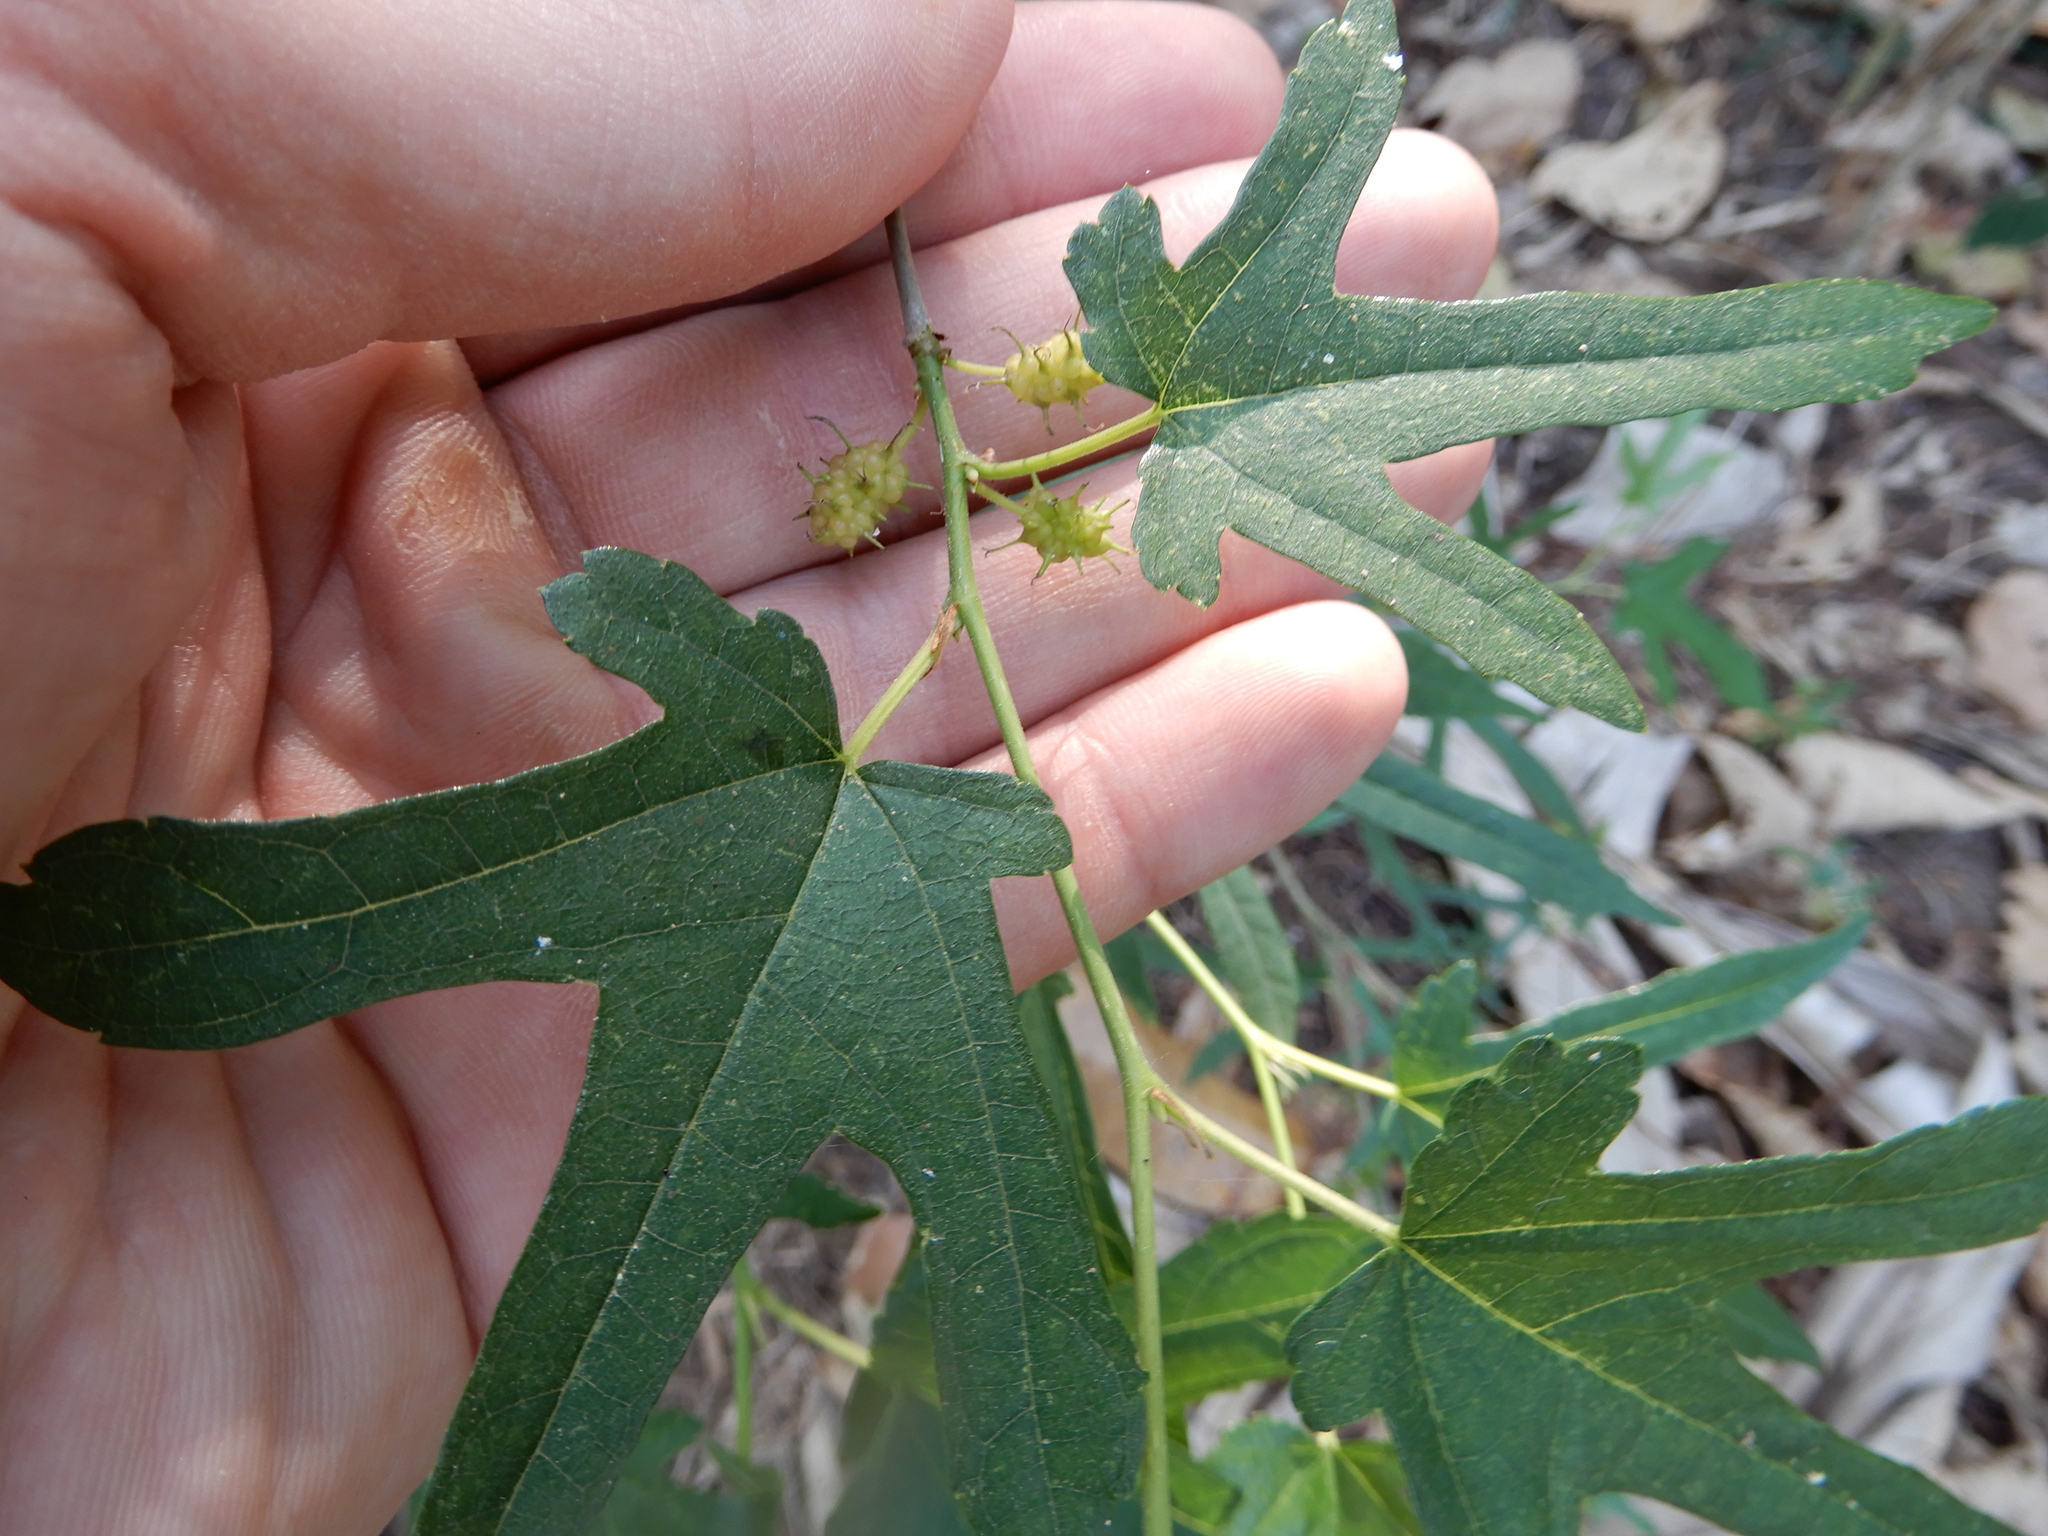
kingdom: Plantae
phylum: Tracheophyta
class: Magnoliopsida
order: Rosales
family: Moraceae
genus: Morus
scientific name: Morus indica
